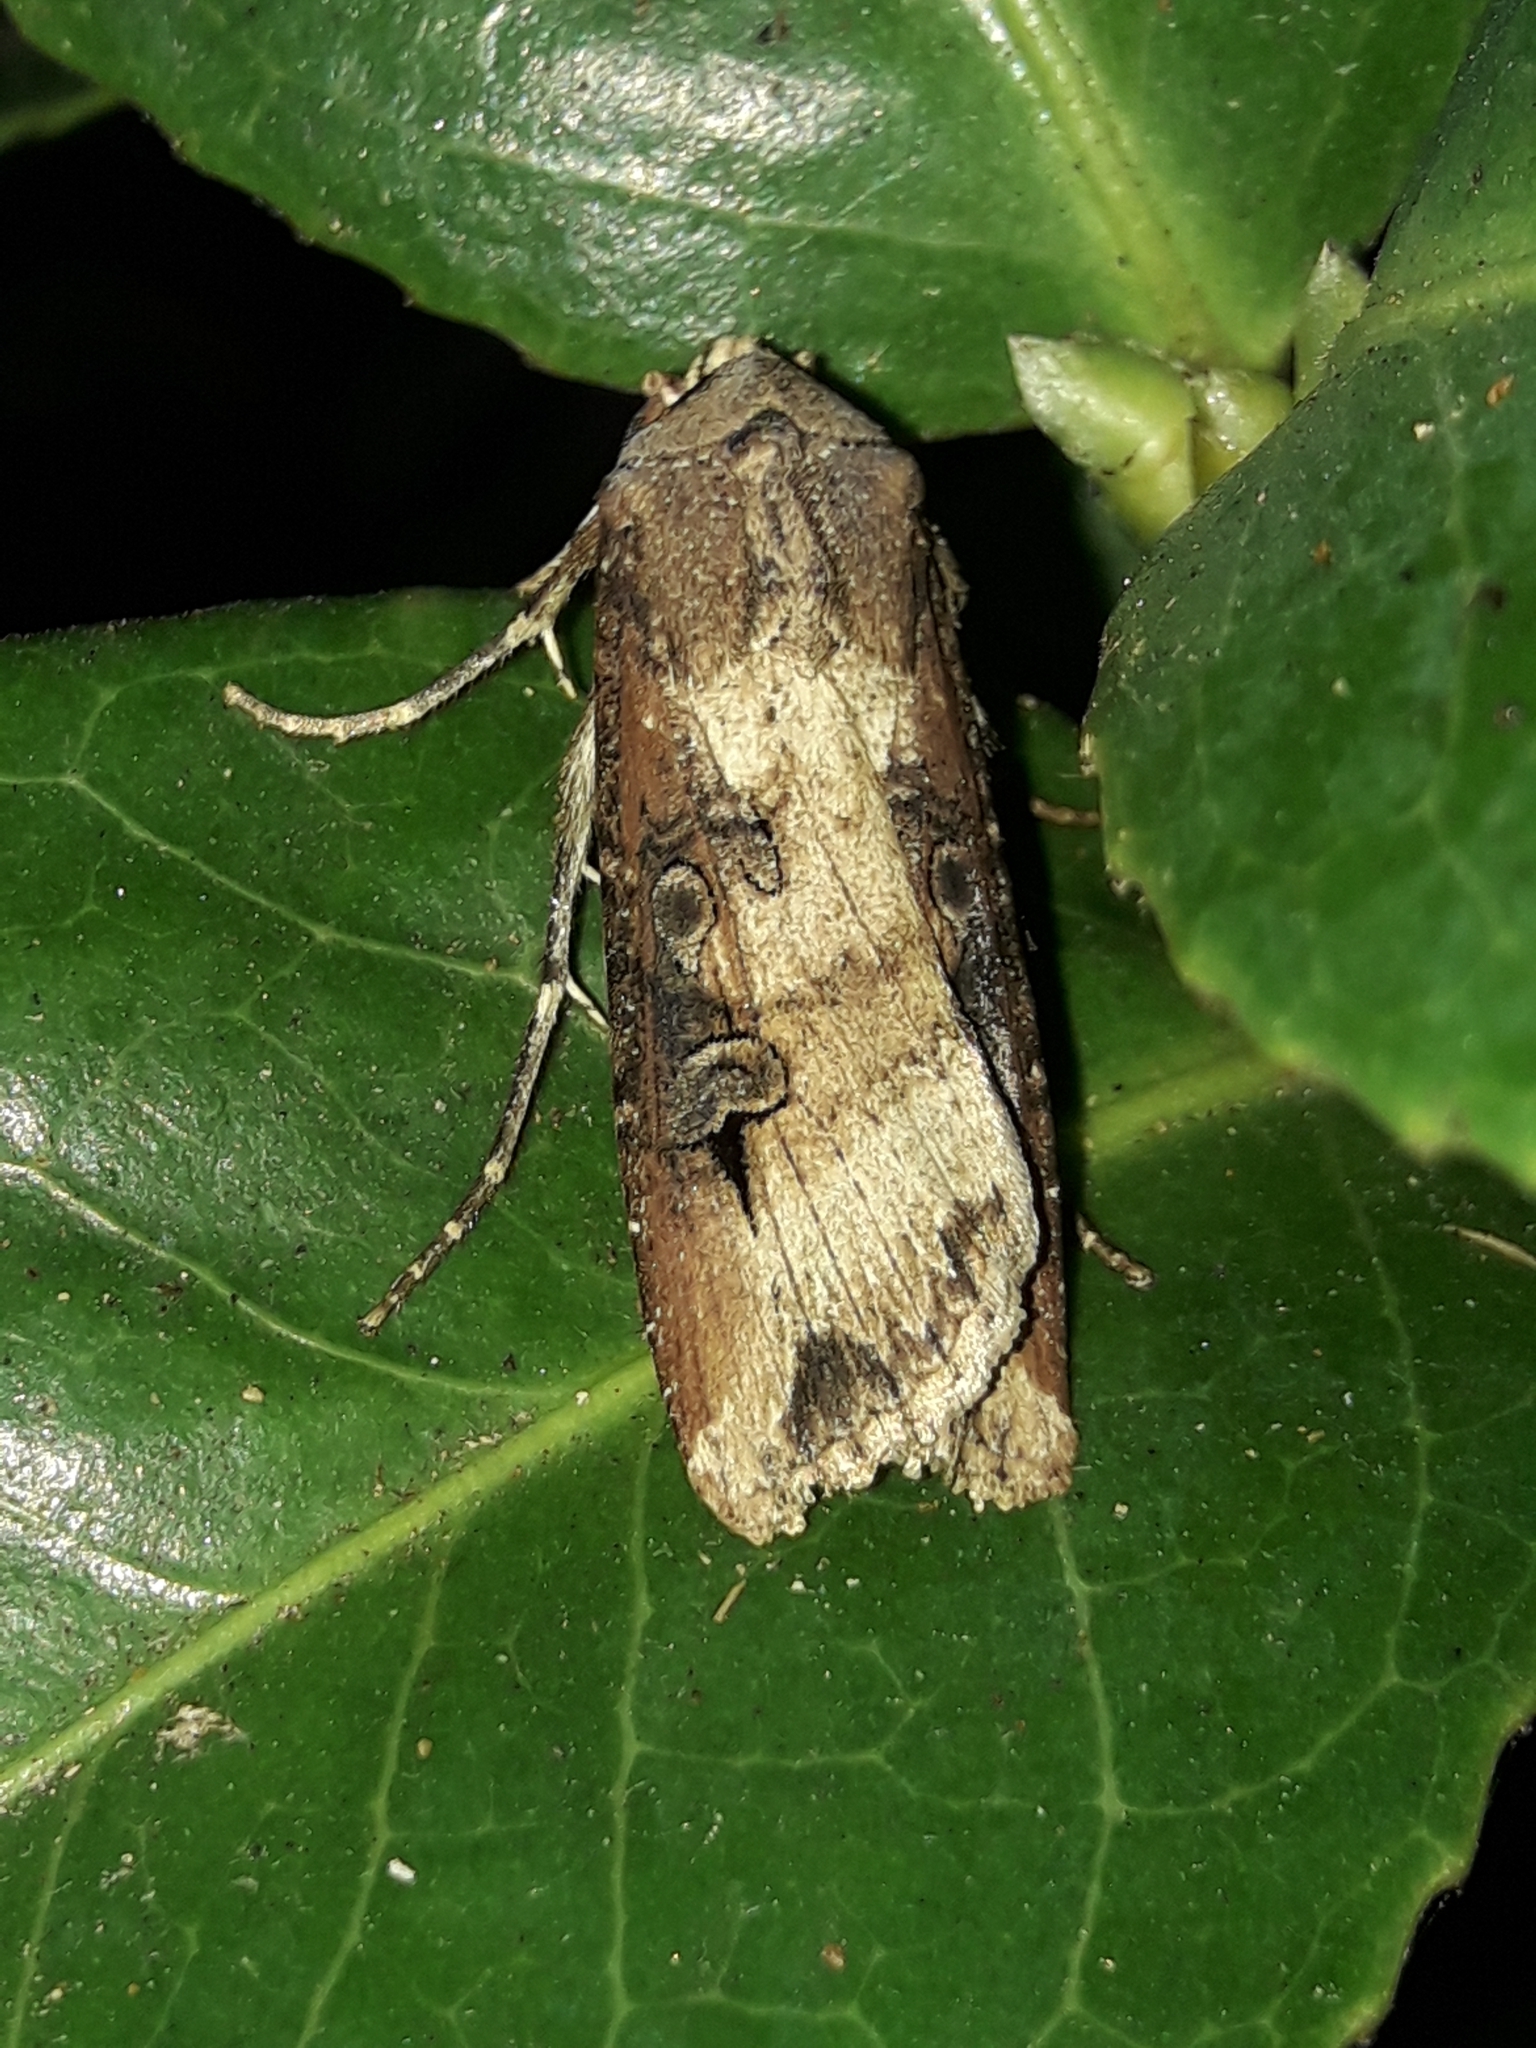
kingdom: Animalia
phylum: Arthropoda
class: Insecta
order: Lepidoptera
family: Noctuidae
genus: Agrotis
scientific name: Agrotis ipsilon
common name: Dark sword-grass
